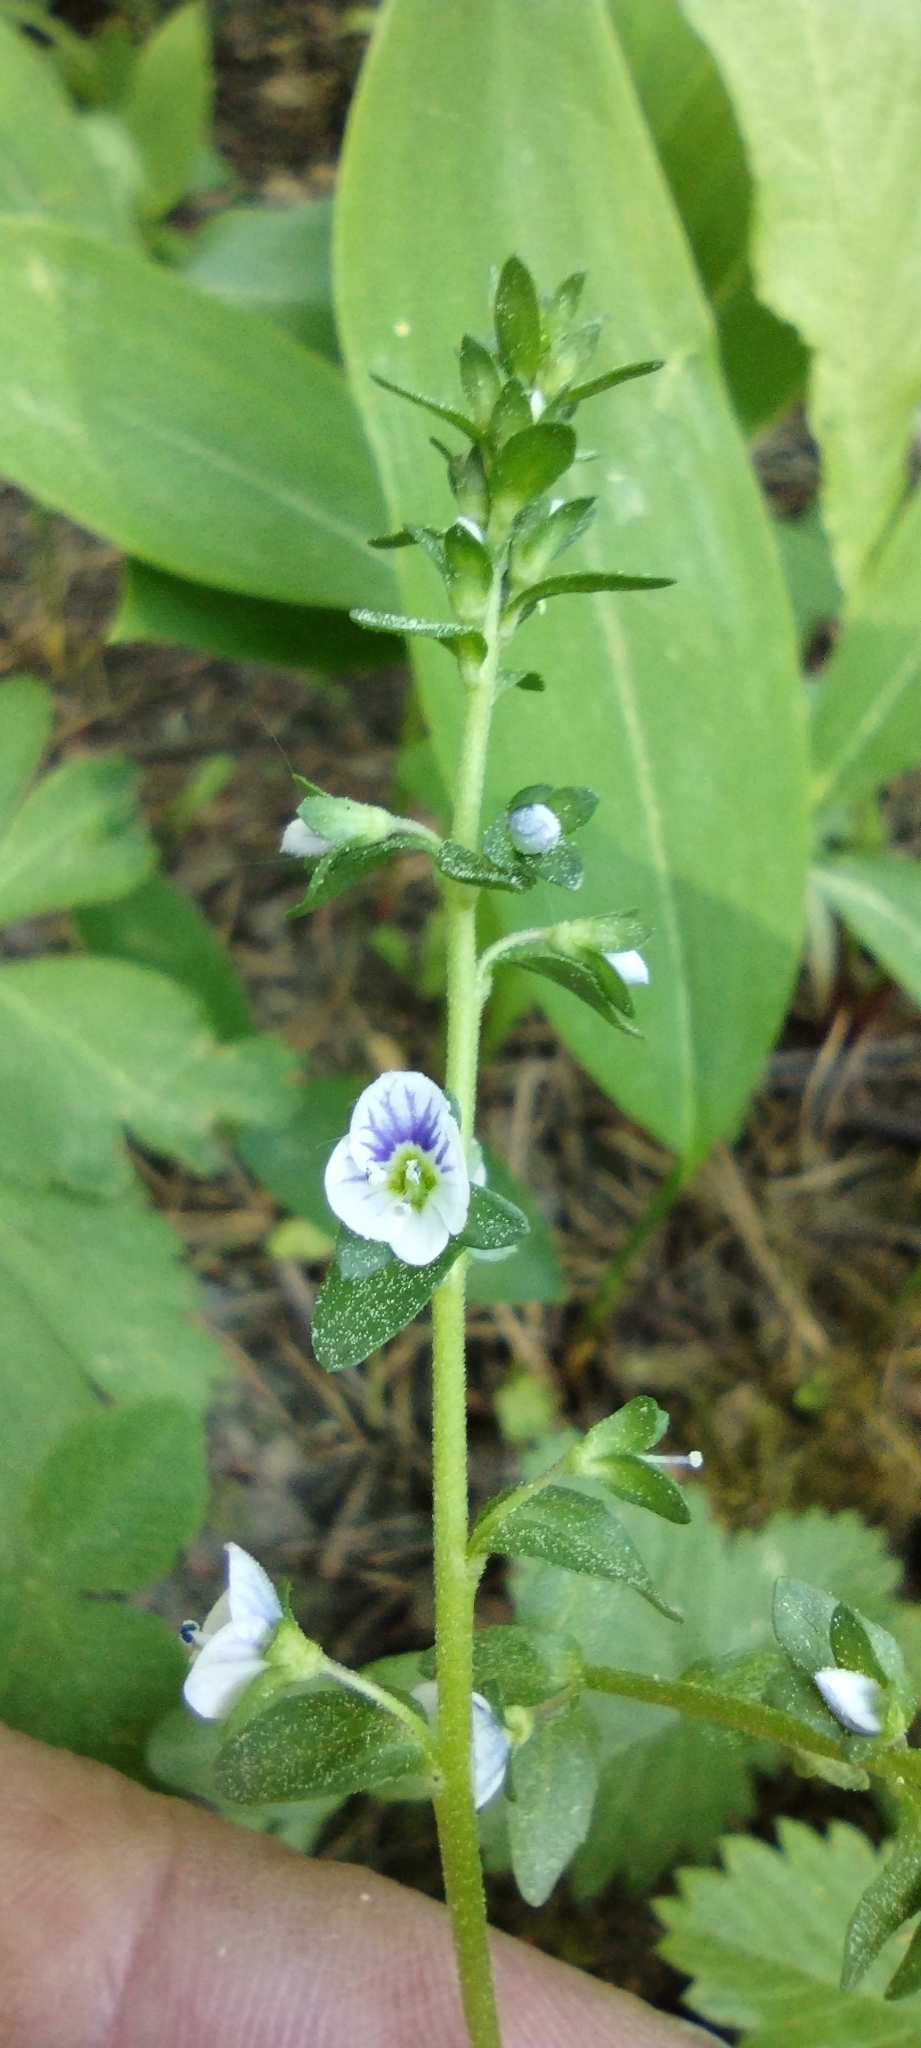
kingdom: Plantae
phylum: Tracheophyta
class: Magnoliopsida
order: Lamiales
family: Plantaginaceae
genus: Veronica
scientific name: Veronica serpyllifolia
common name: Thyme-leaved speedwell
